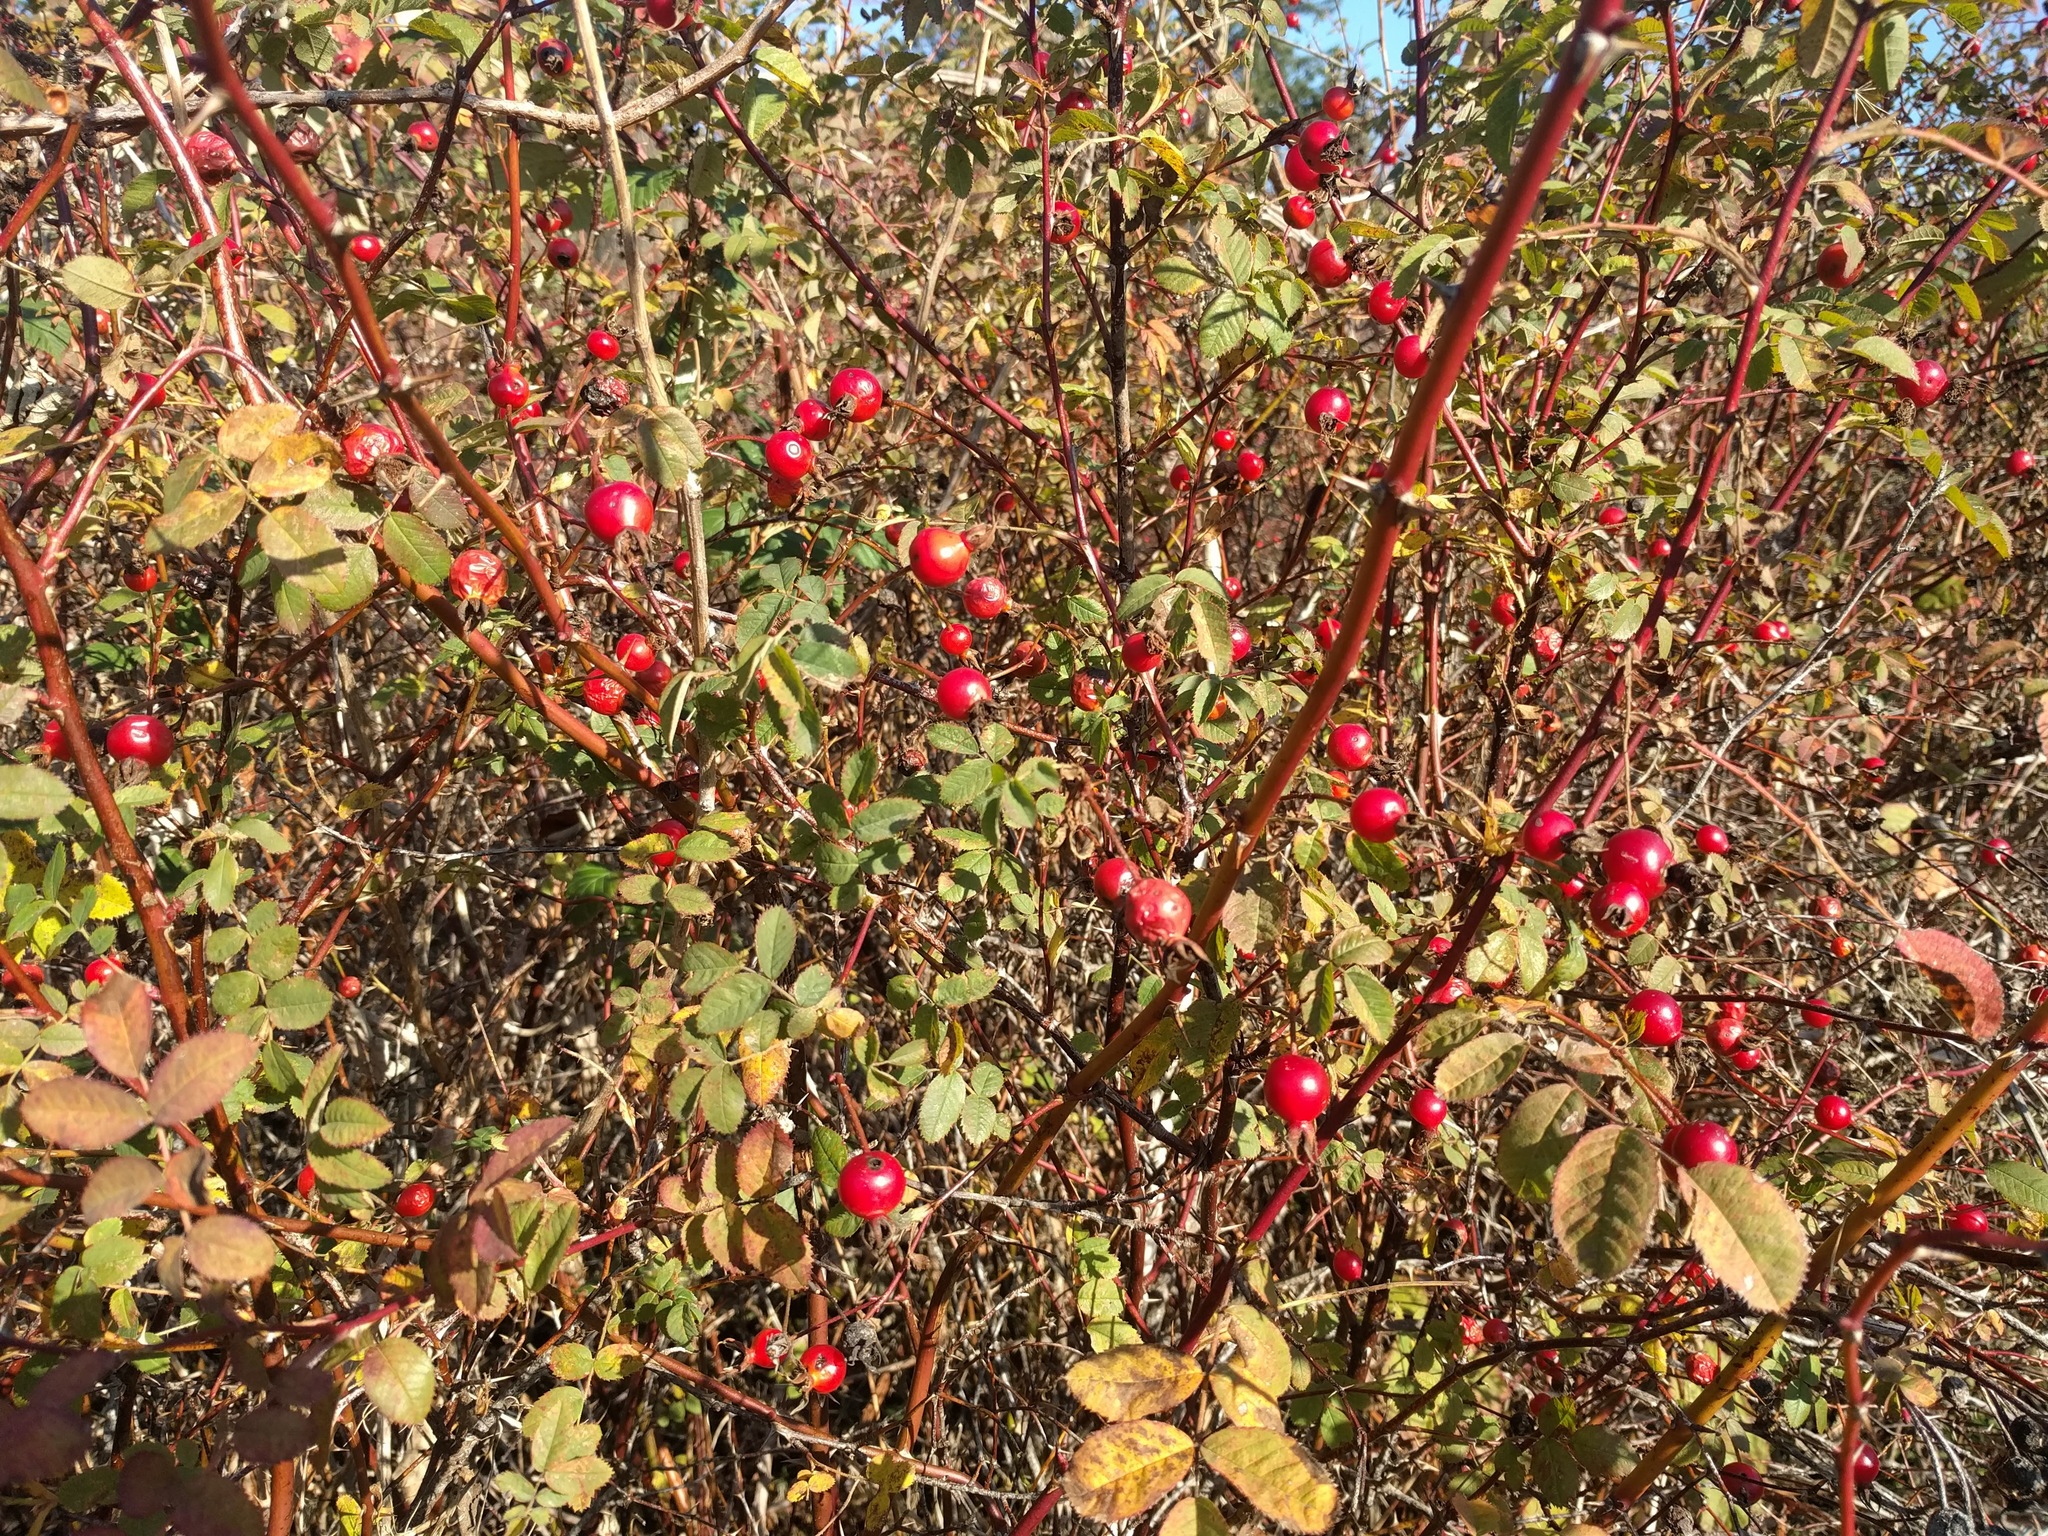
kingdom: Plantae
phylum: Tracheophyta
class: Magnoliopsida
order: Rosales
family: Rosaceae
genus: Rosa
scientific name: Rosa nutkana
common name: Nootka rose
